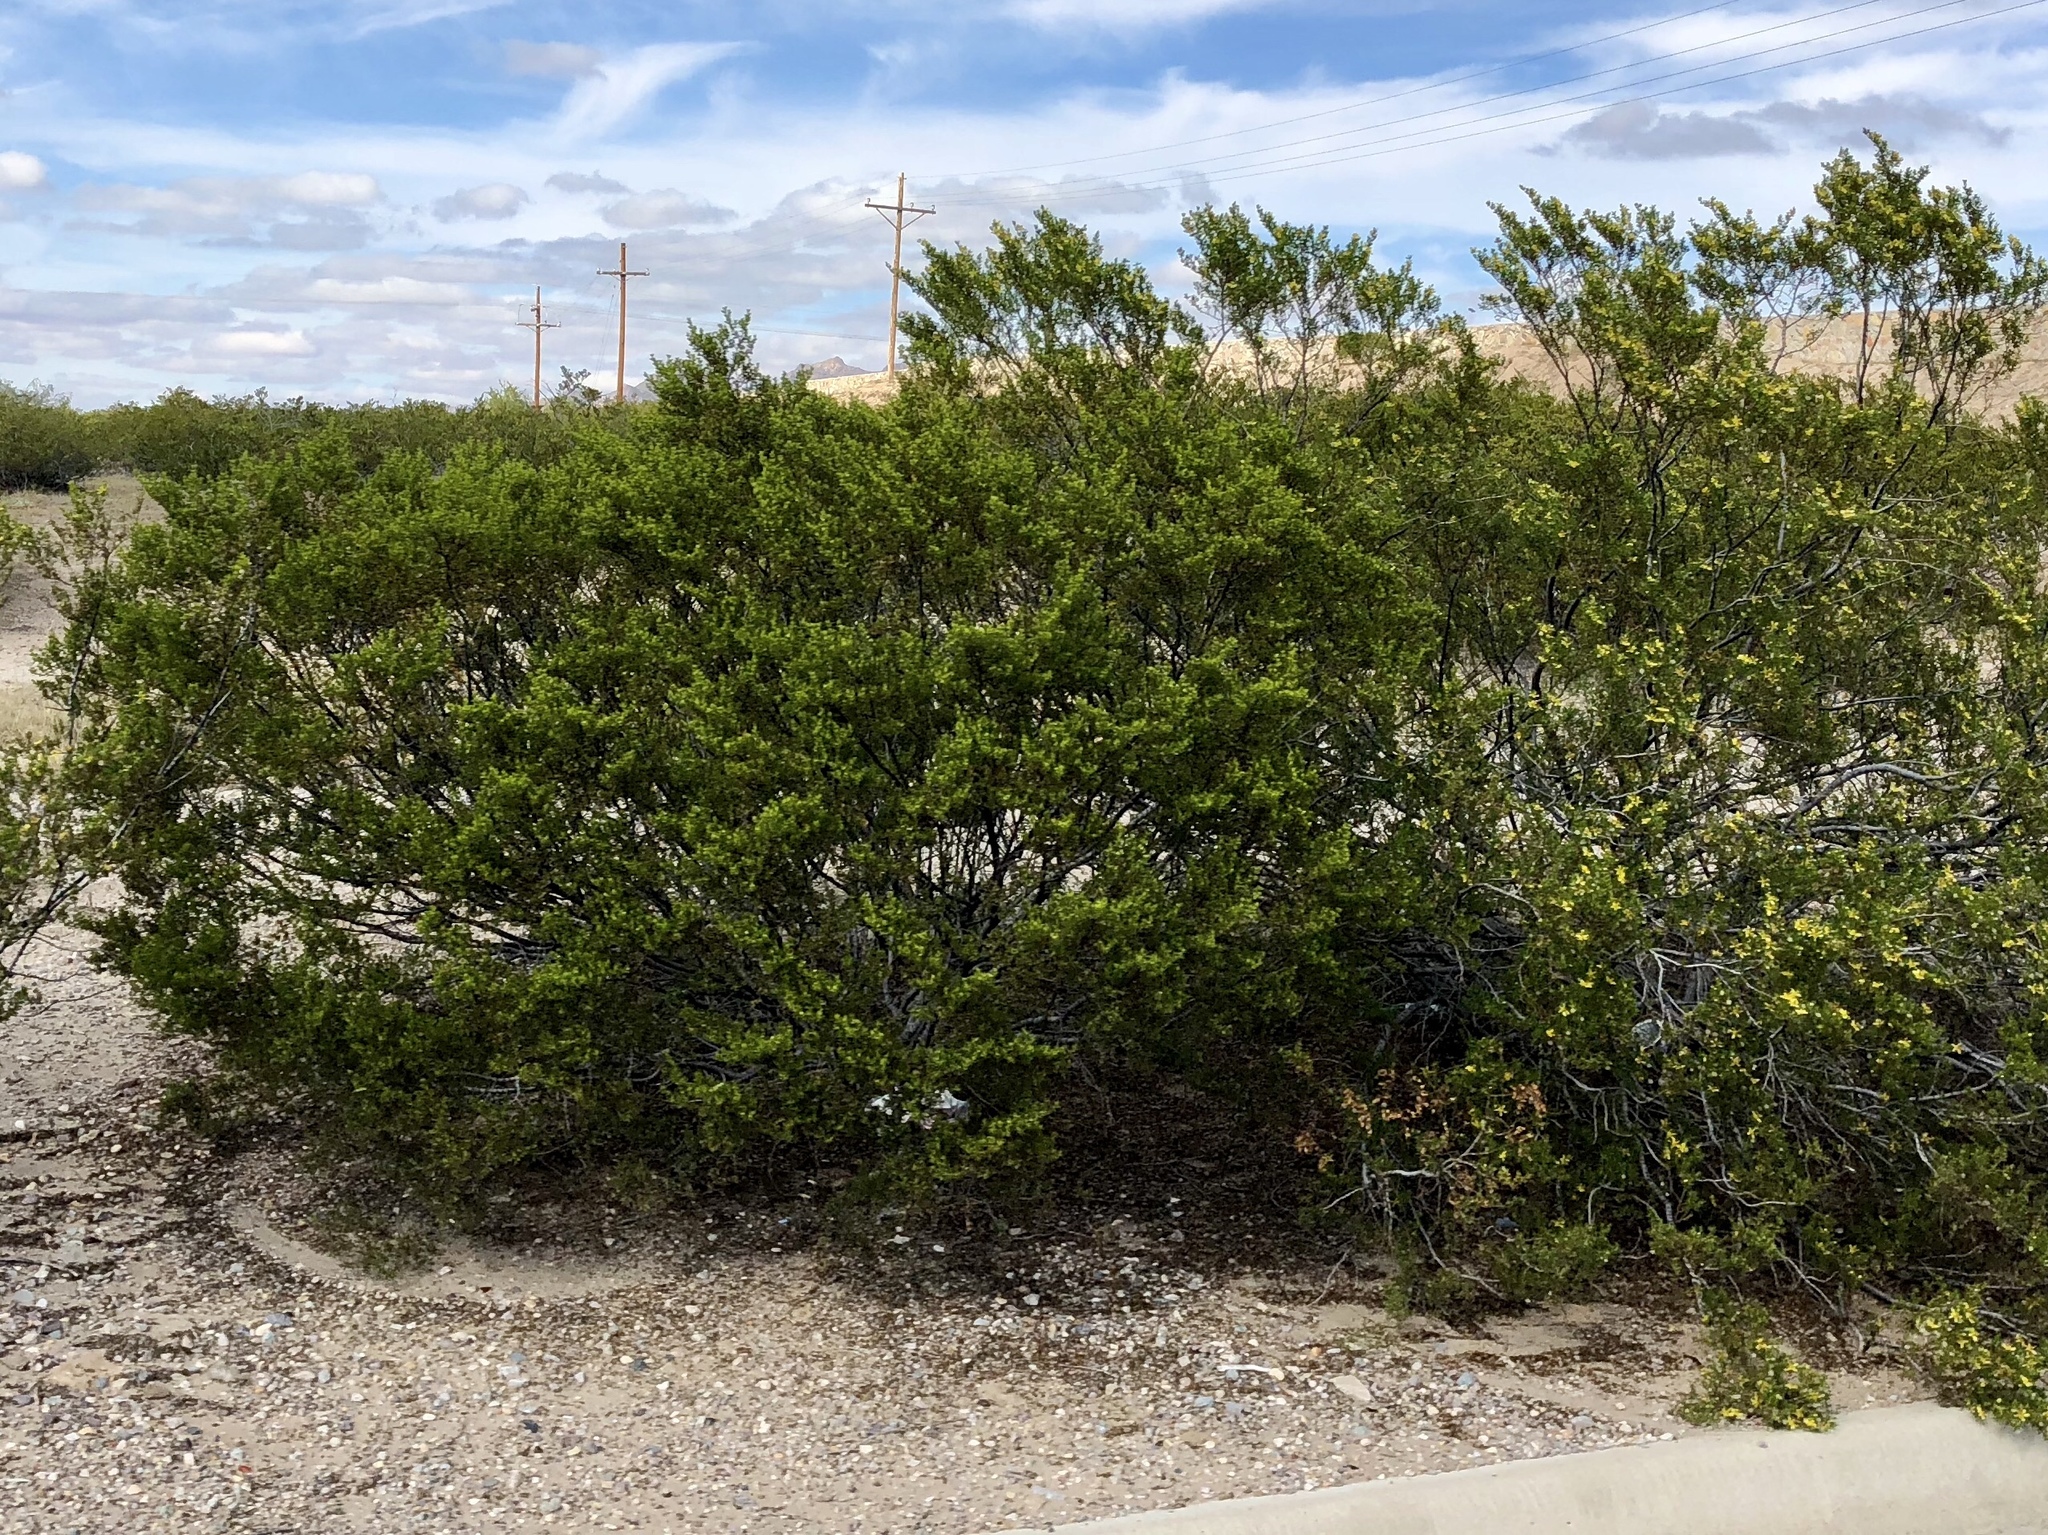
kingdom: Plantae
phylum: Tracheophyta
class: Magnoliopsida
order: Zygophyllales
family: Zygophyllaceae
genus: Larrea
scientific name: Larrea tridentata
